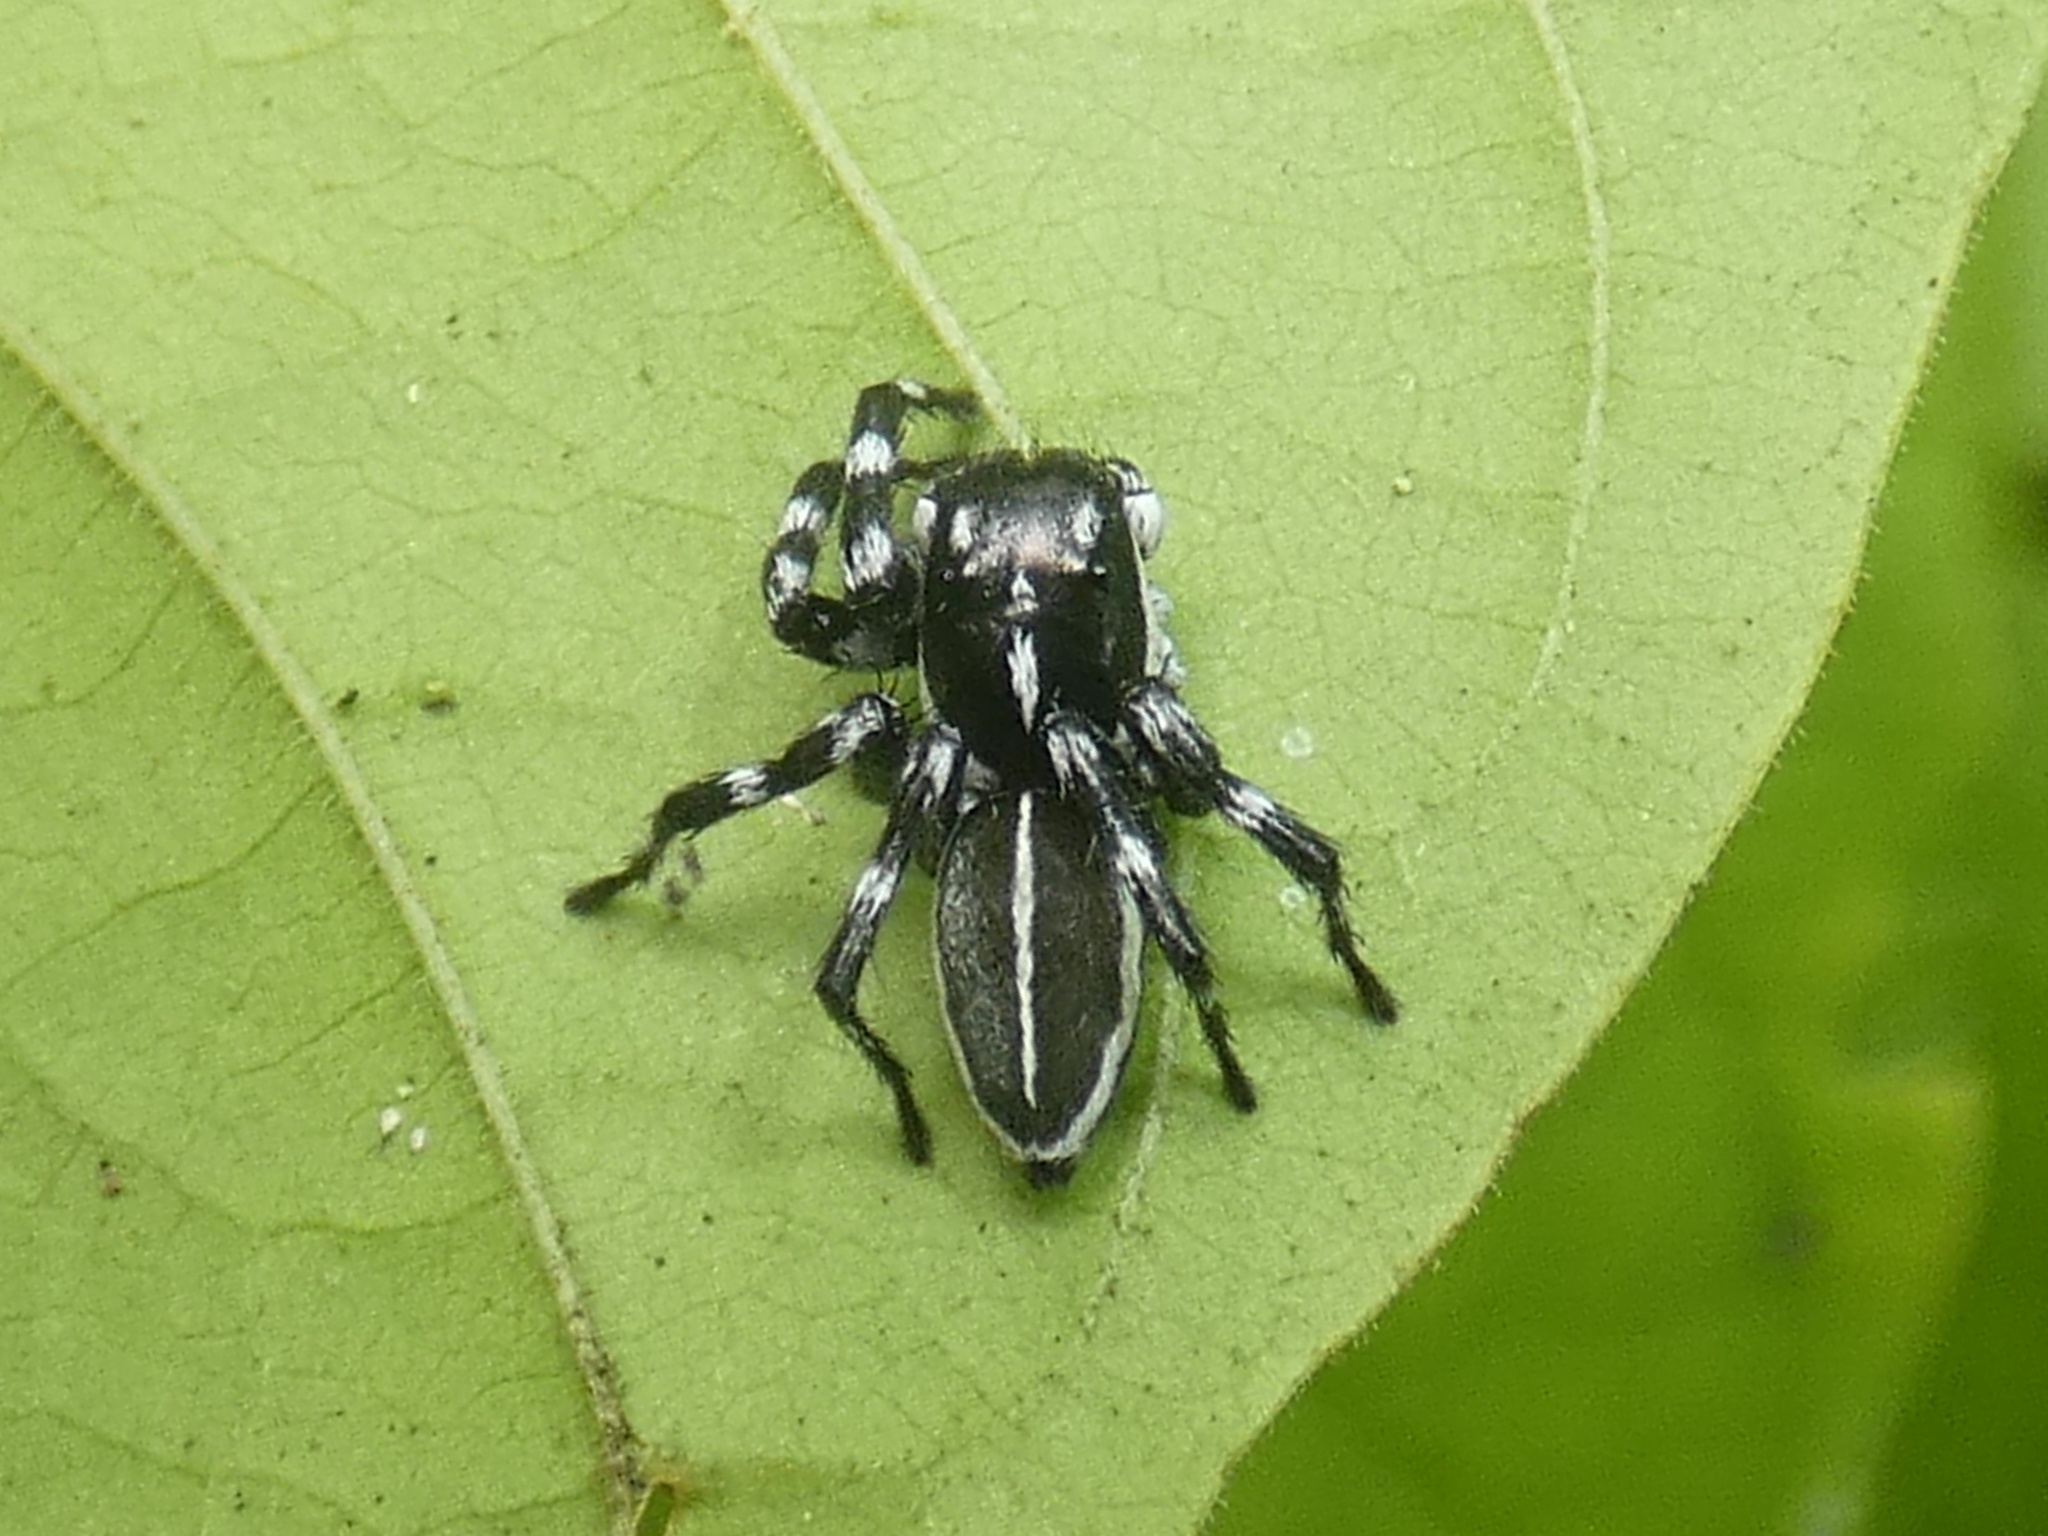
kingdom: Animalia
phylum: Arthropoda
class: Arachnida
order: Araneae
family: Salticidae
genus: Phiale
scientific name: Phiale tristis
